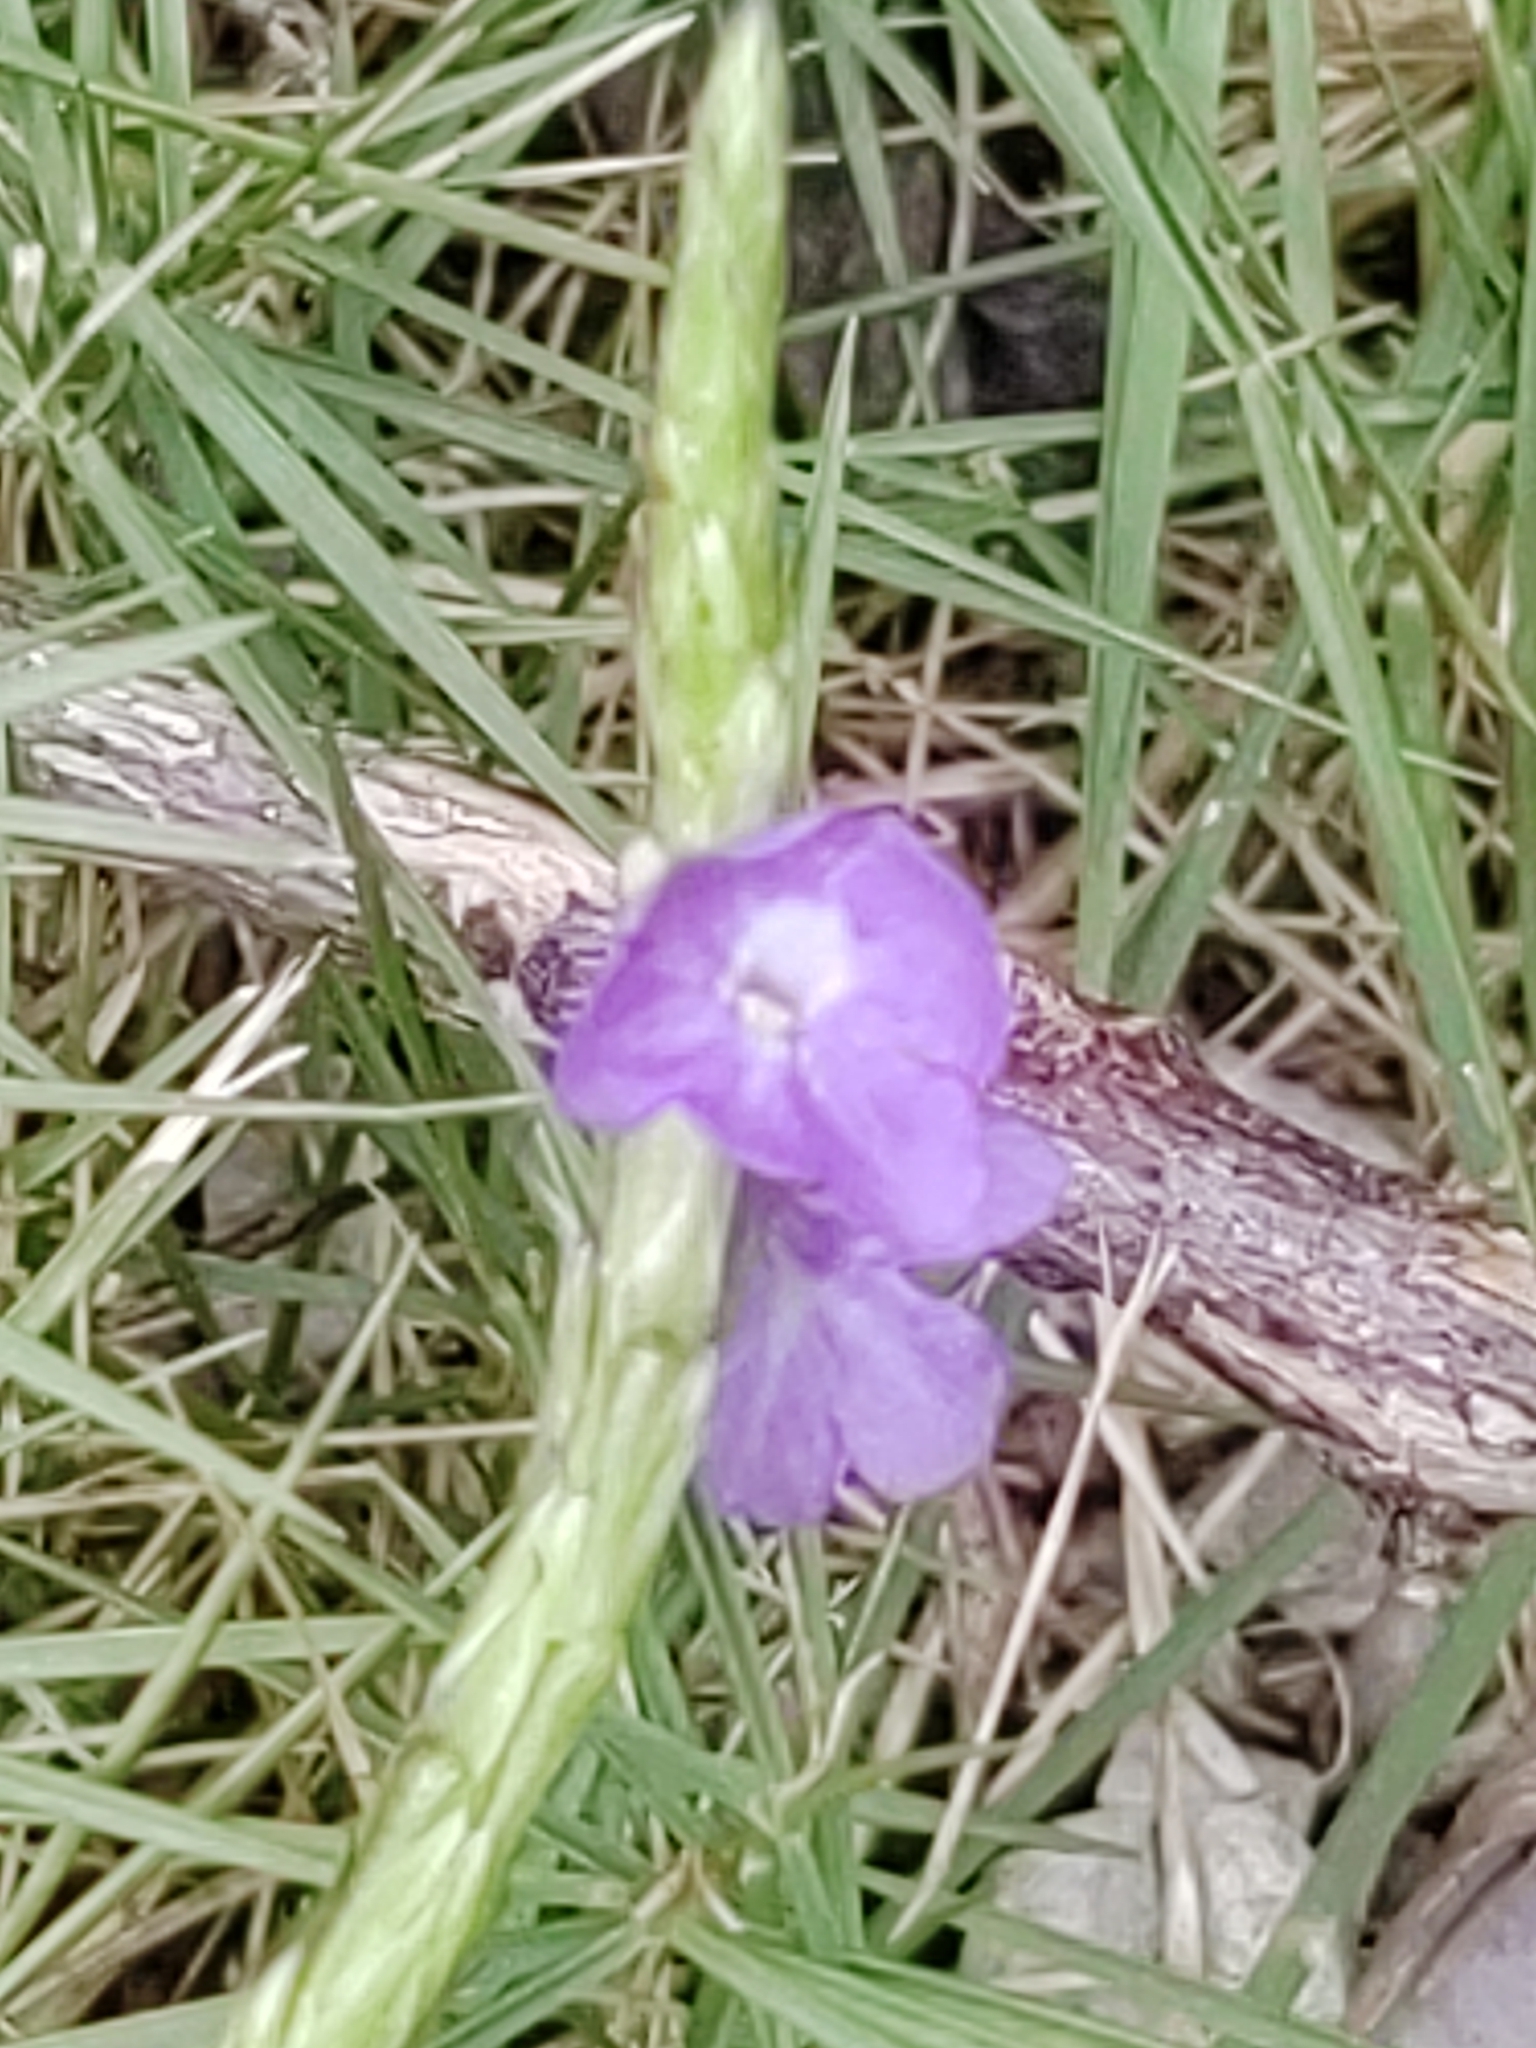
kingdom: Plantae
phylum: Tracheophyta
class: Magnoliopsida
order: Lamiales
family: Verbenaceae
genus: Stachytarpheta
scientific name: Stachytarpheta jamaicensis
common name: Light-blue snakeweed
